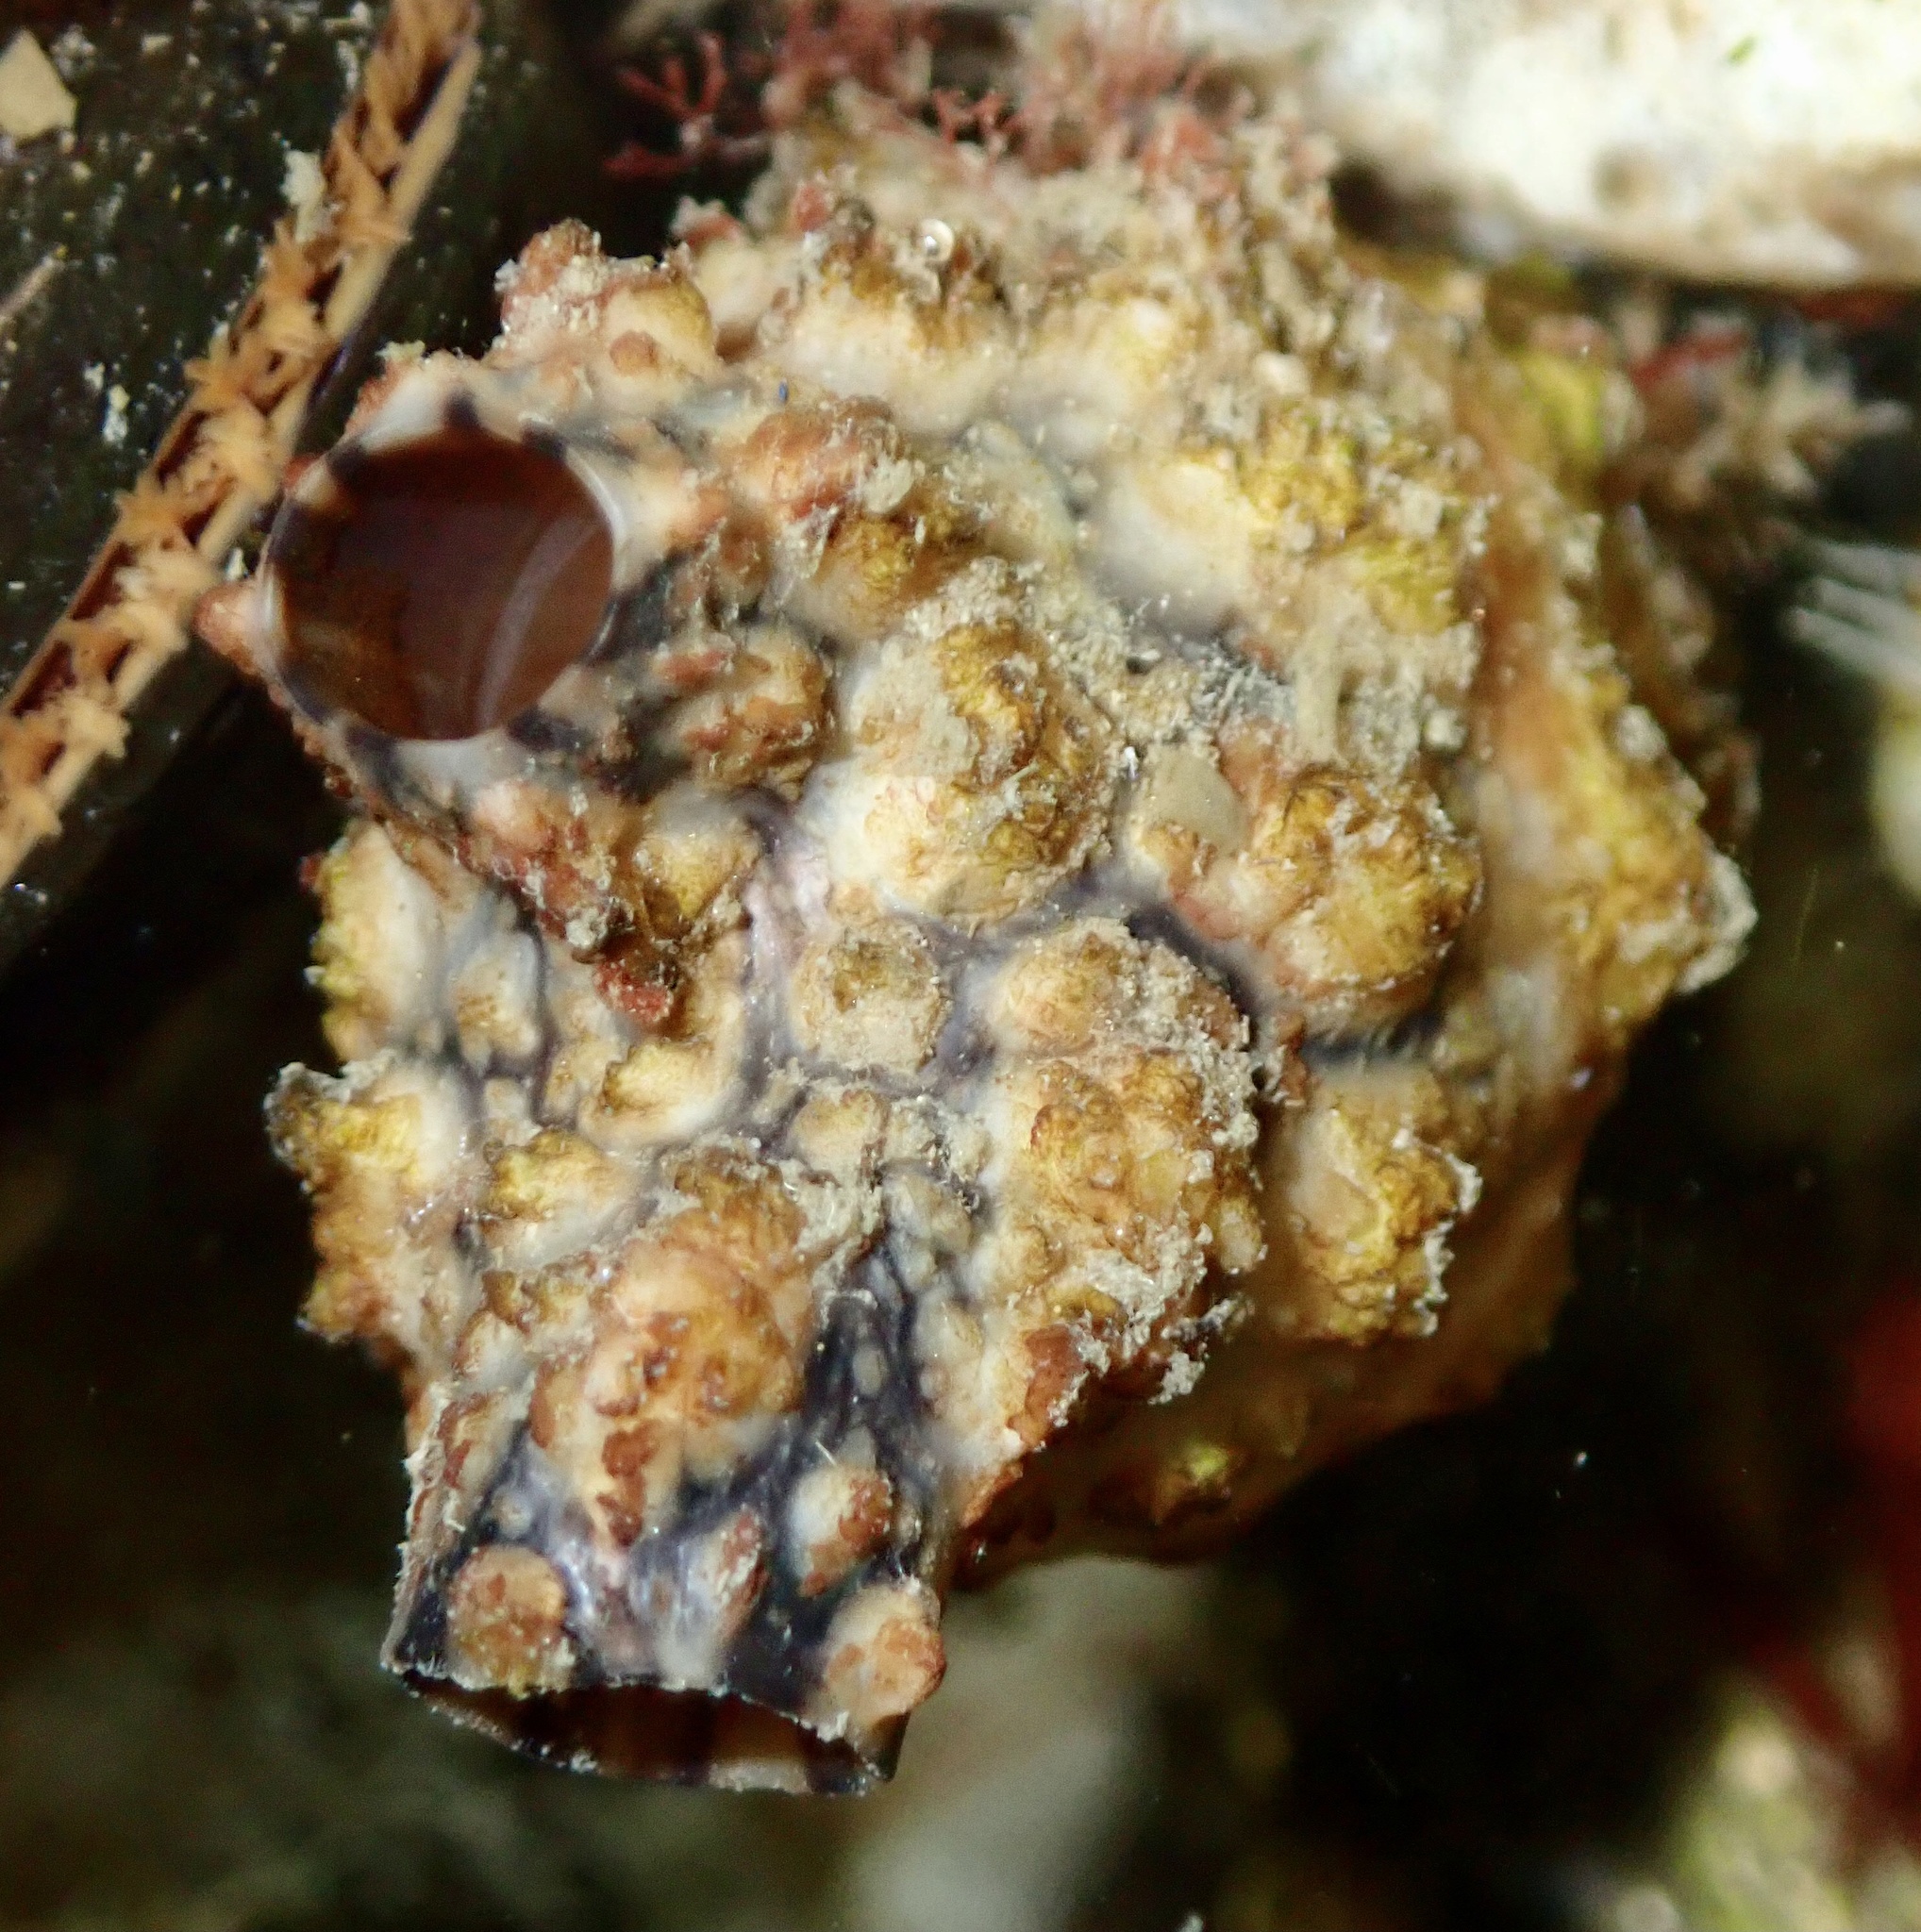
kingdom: Animalia
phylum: Chordata
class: Ascidiacea
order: Stolidobranchia
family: Styelidae
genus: Styela
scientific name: Styela clava
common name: Leathery sea squirt
